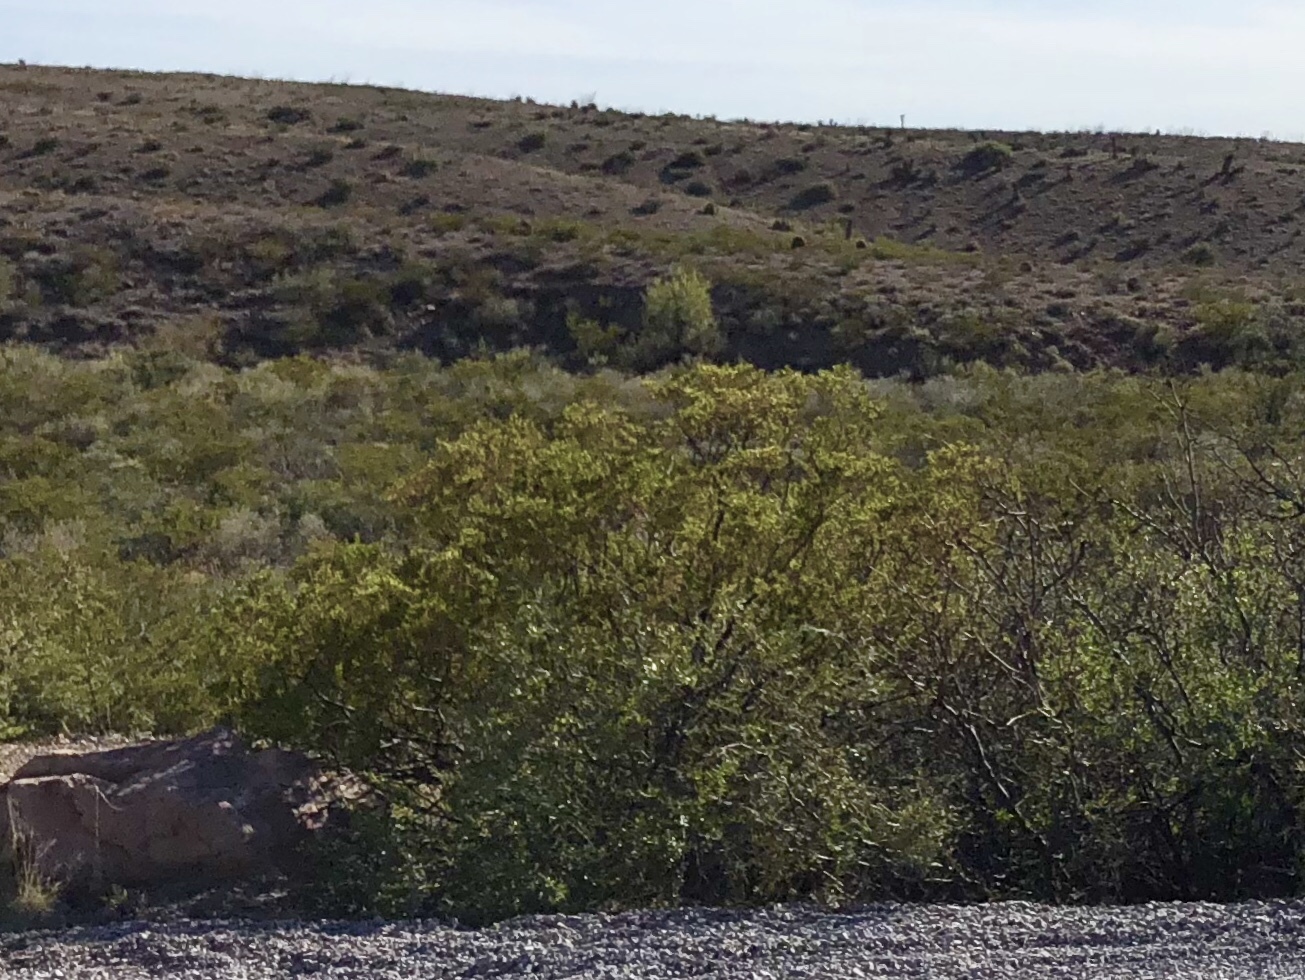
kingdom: Plantae
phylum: Tracheophyta
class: Magnoliopsida
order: Zygophyllales
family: Zygophyllaceae
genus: Larrea
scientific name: Larrea tridentata
